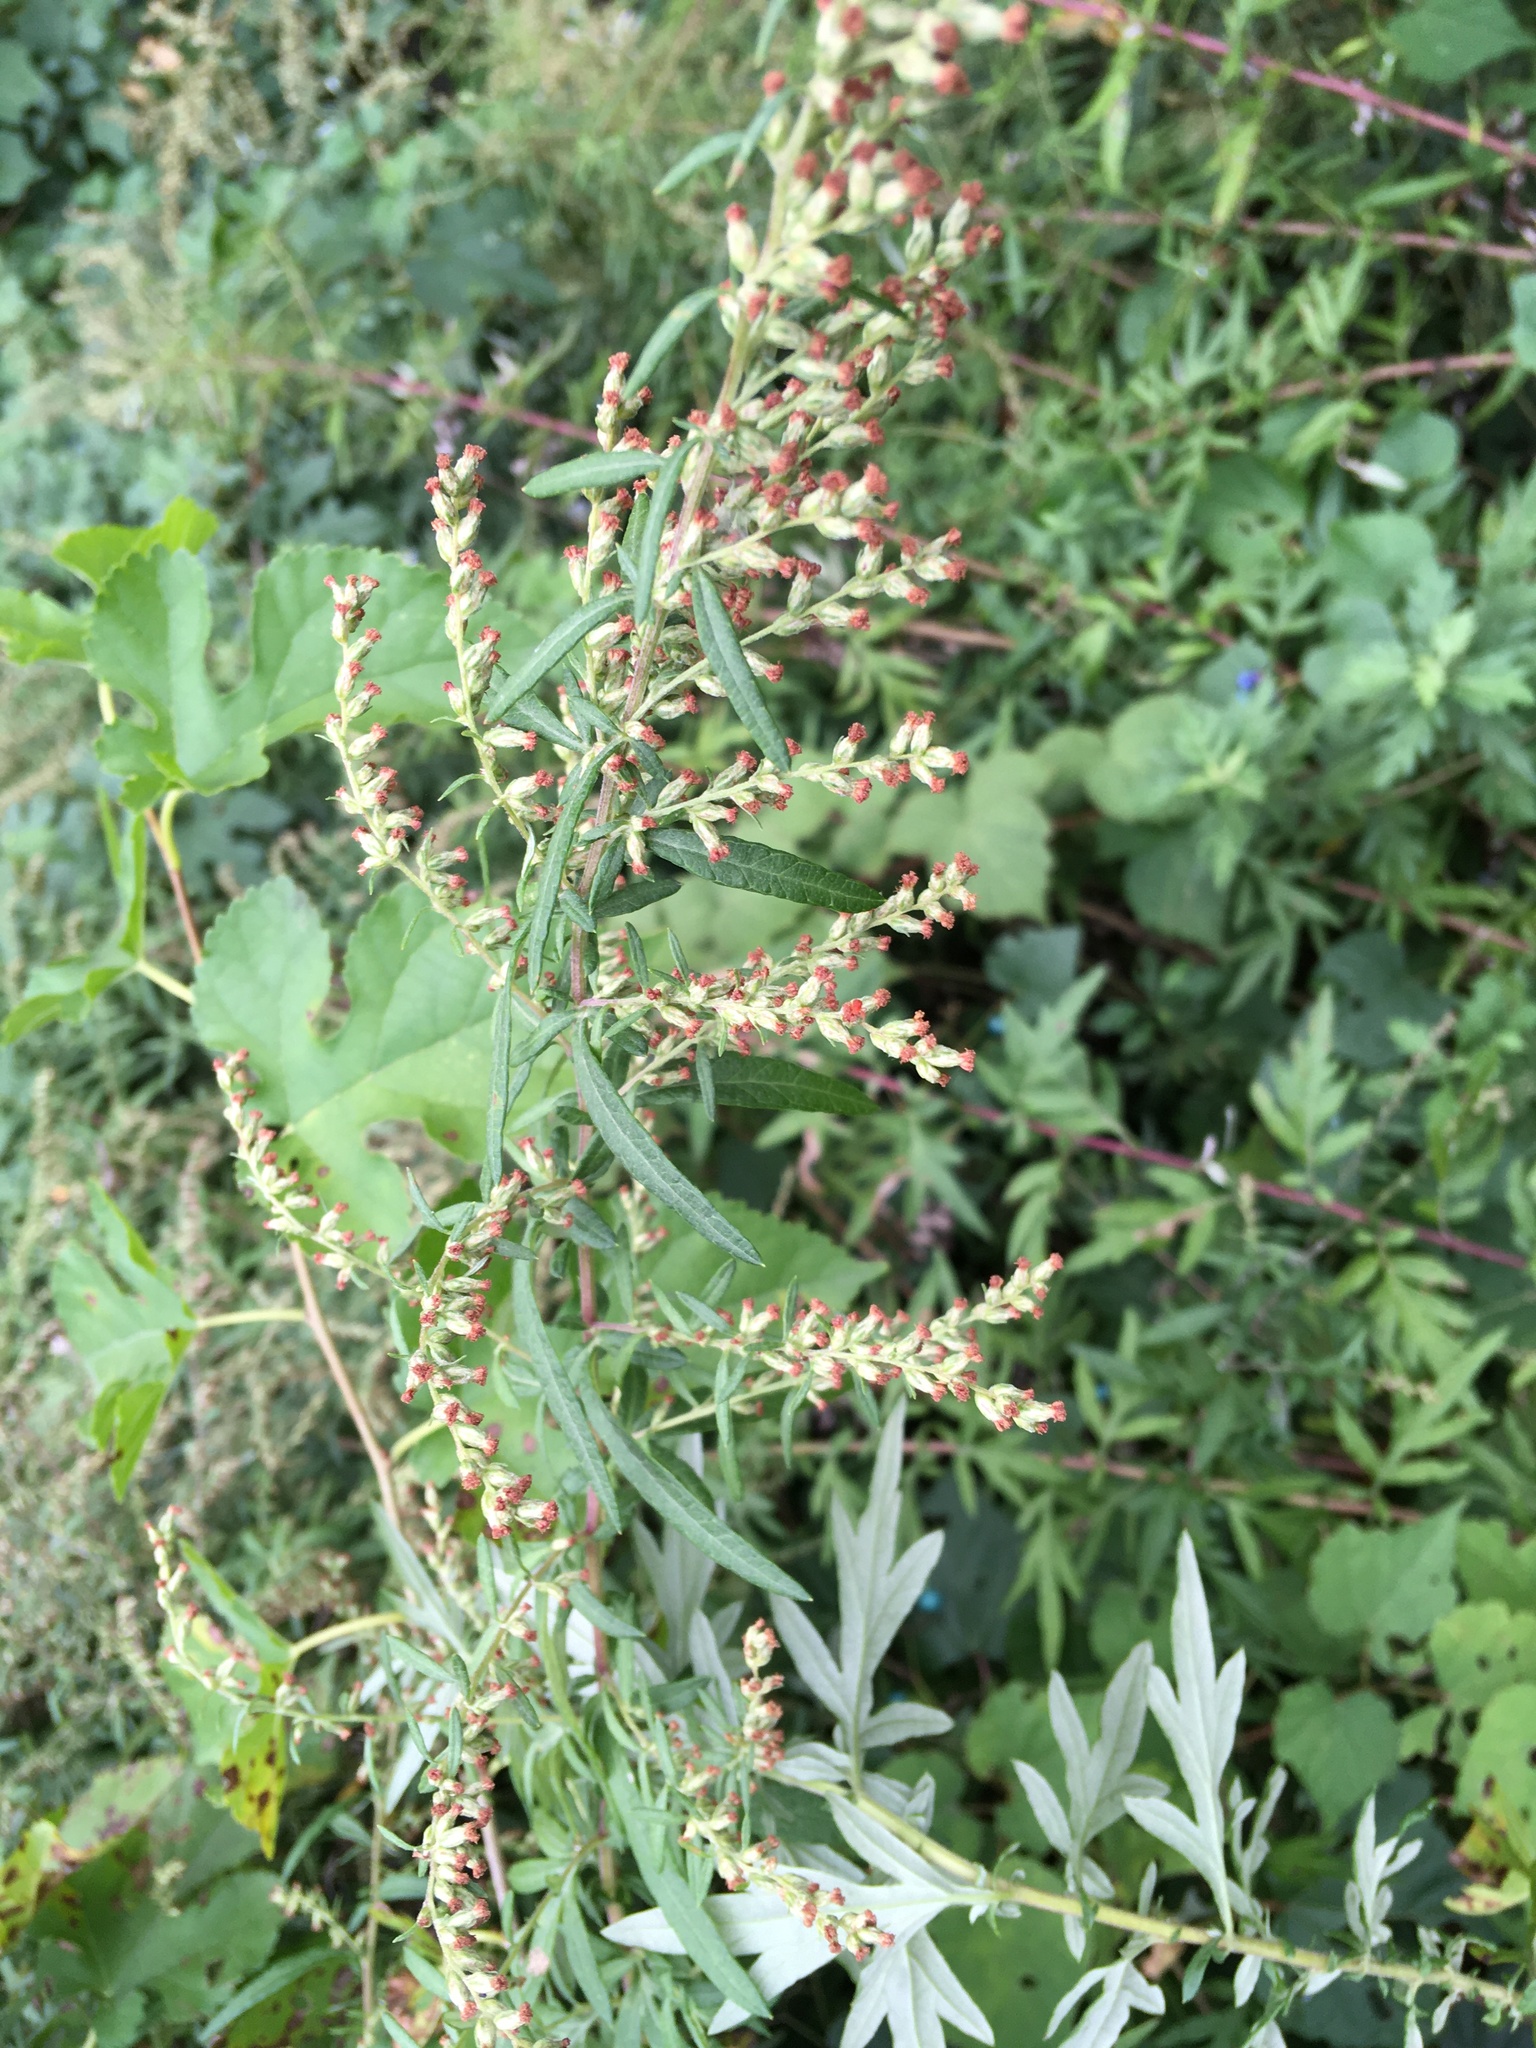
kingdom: Plantae
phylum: Tracheophyta
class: Magnoliopsida
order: Asterales
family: Asteraceae
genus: Artemisia
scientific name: Artemisia vulgaris
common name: Mugwort
